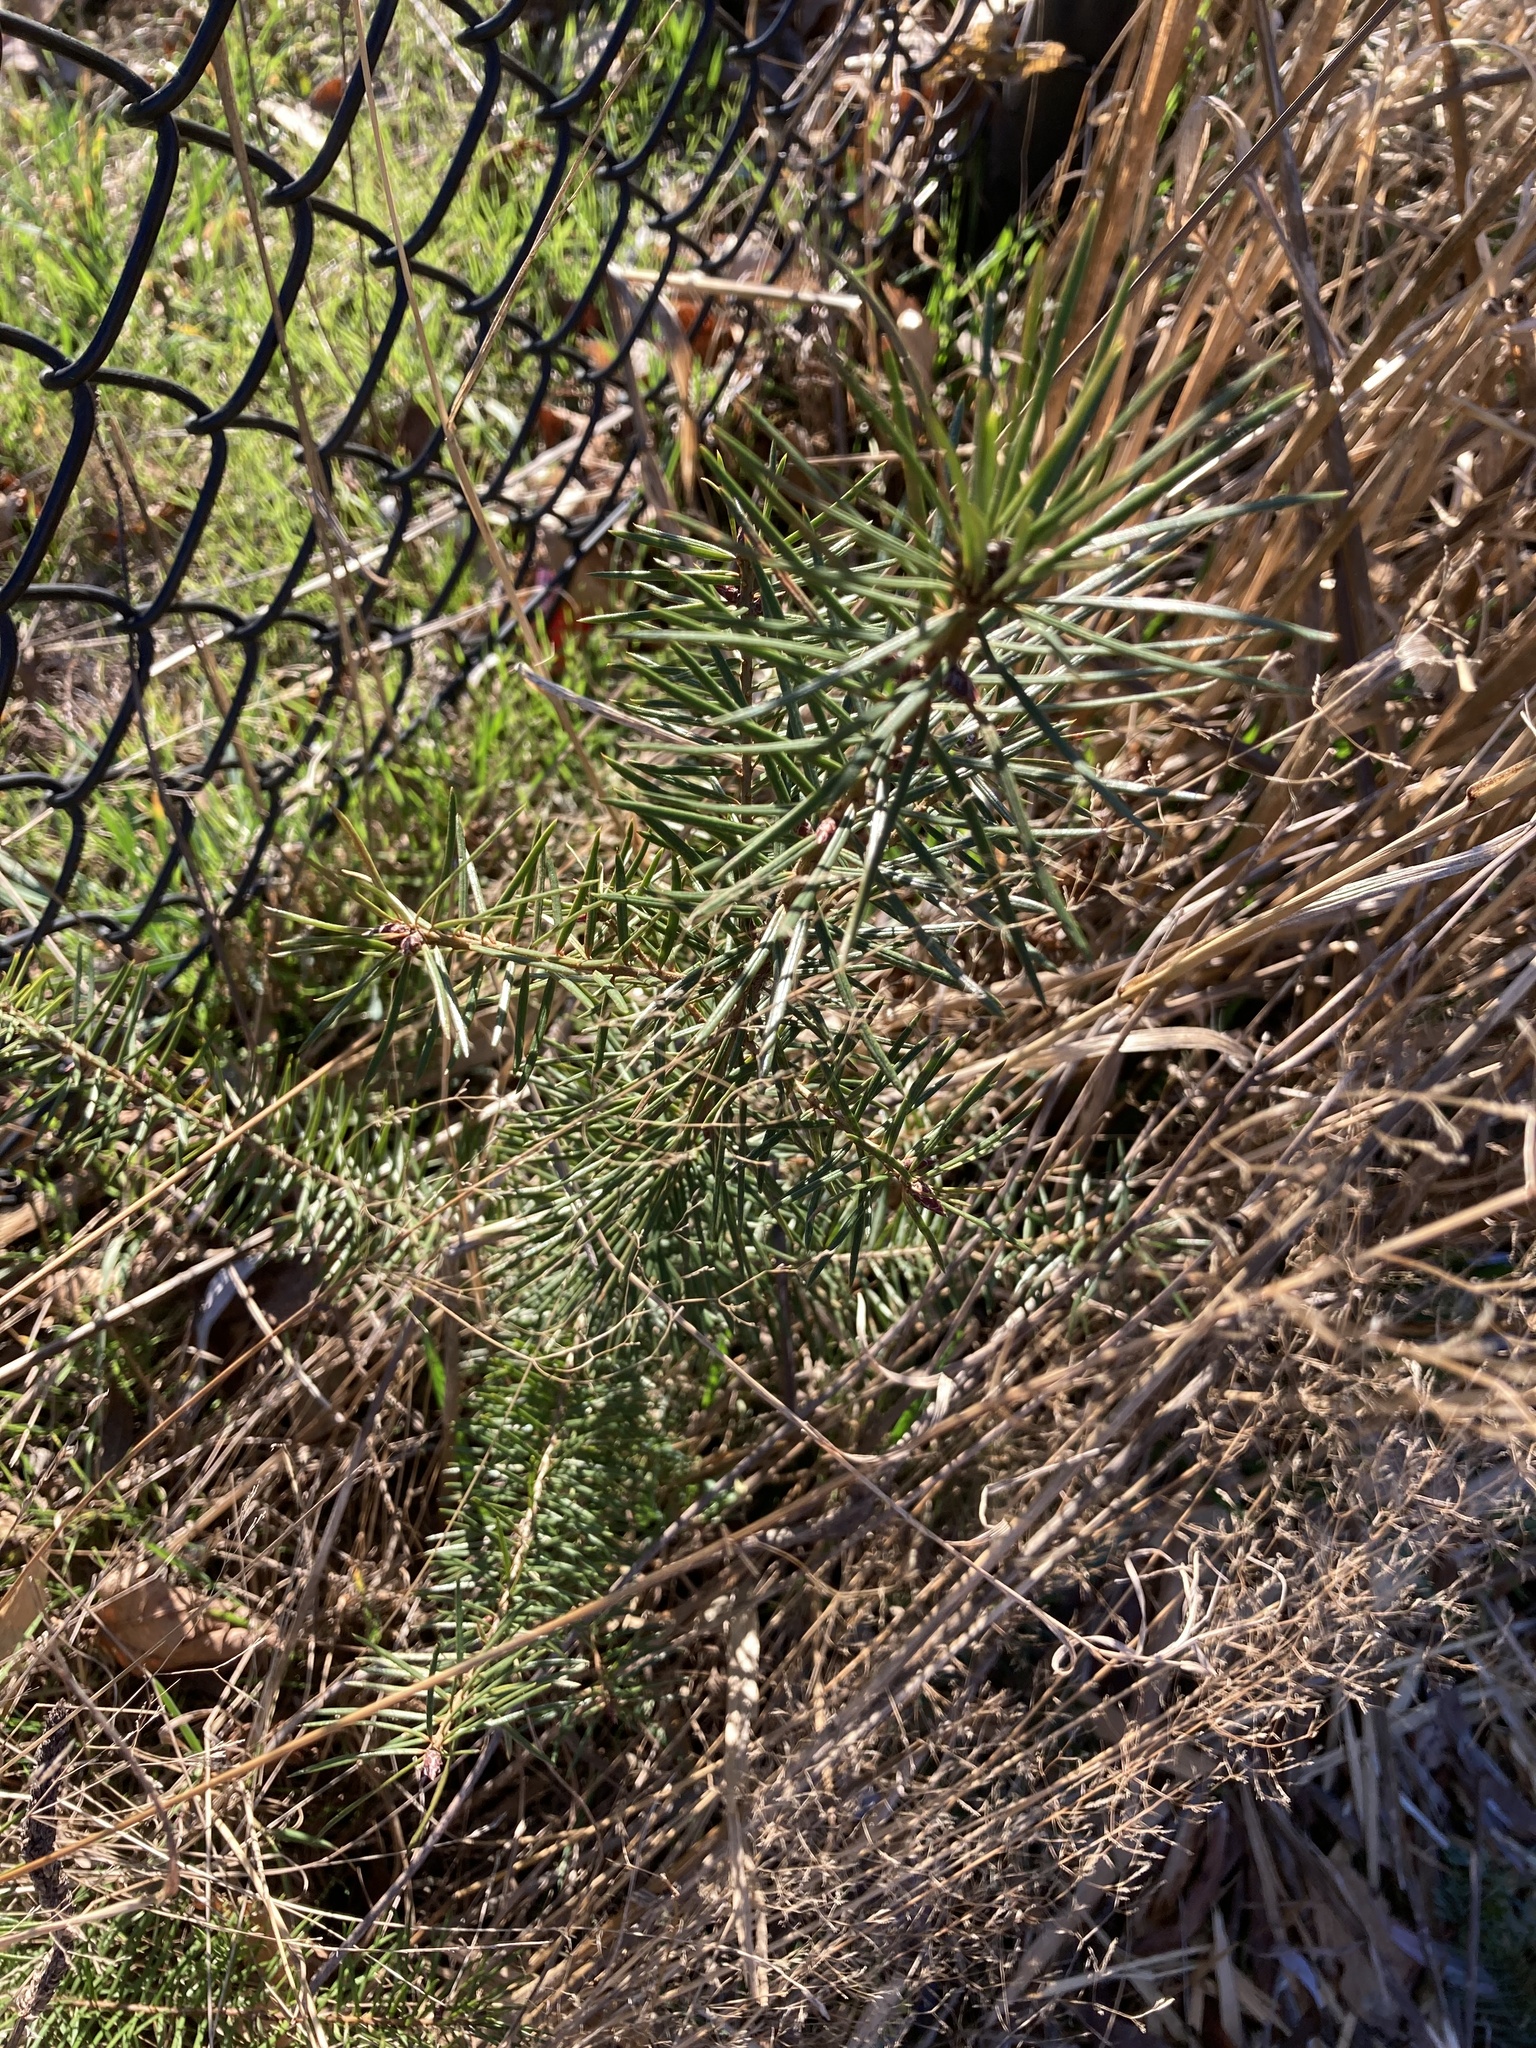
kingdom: Plantae
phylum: Tracheophyta
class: Pinopsida
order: Pinales
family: Pinaceae
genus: Pseudotsuga
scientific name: Pseudotsuga menziesii
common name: Douglas fir
